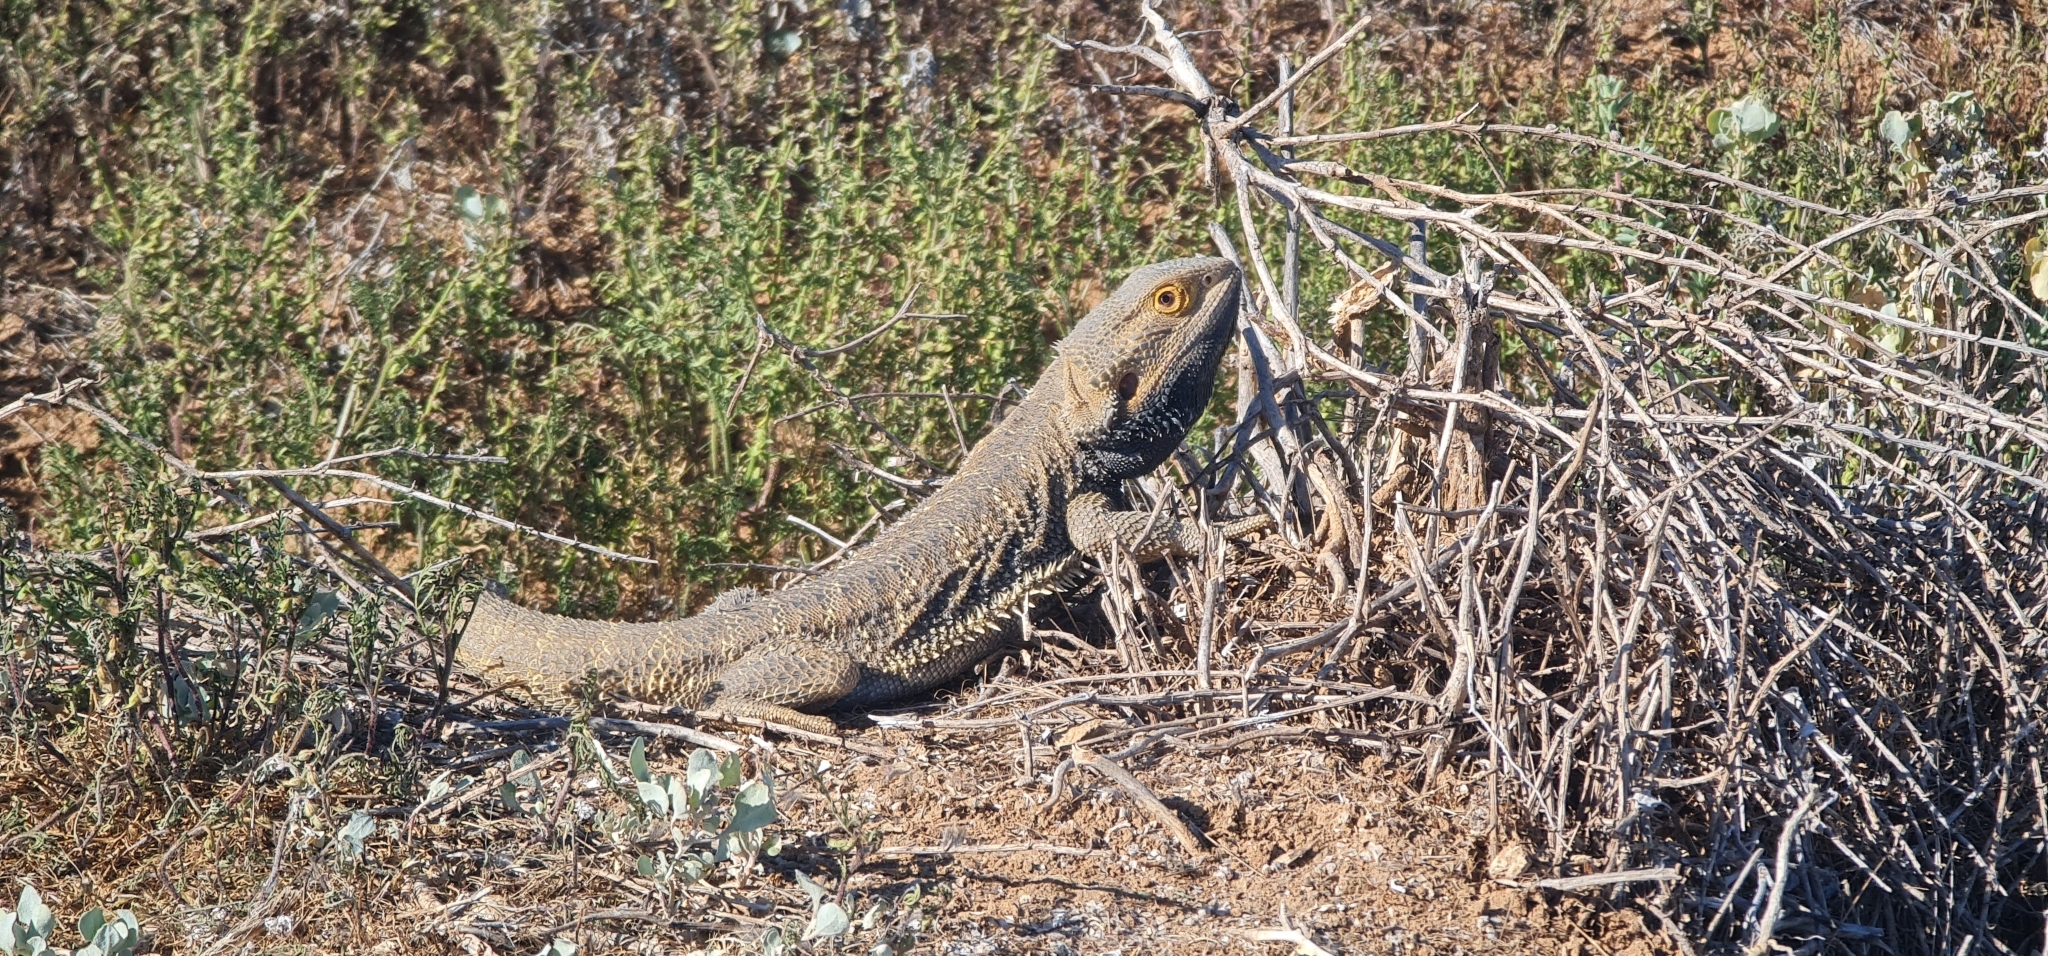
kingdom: Animalia
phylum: Chordata
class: Squamata
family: Agamidae
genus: Pogona
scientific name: Pogona vitticeps
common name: Central bearded dragon
